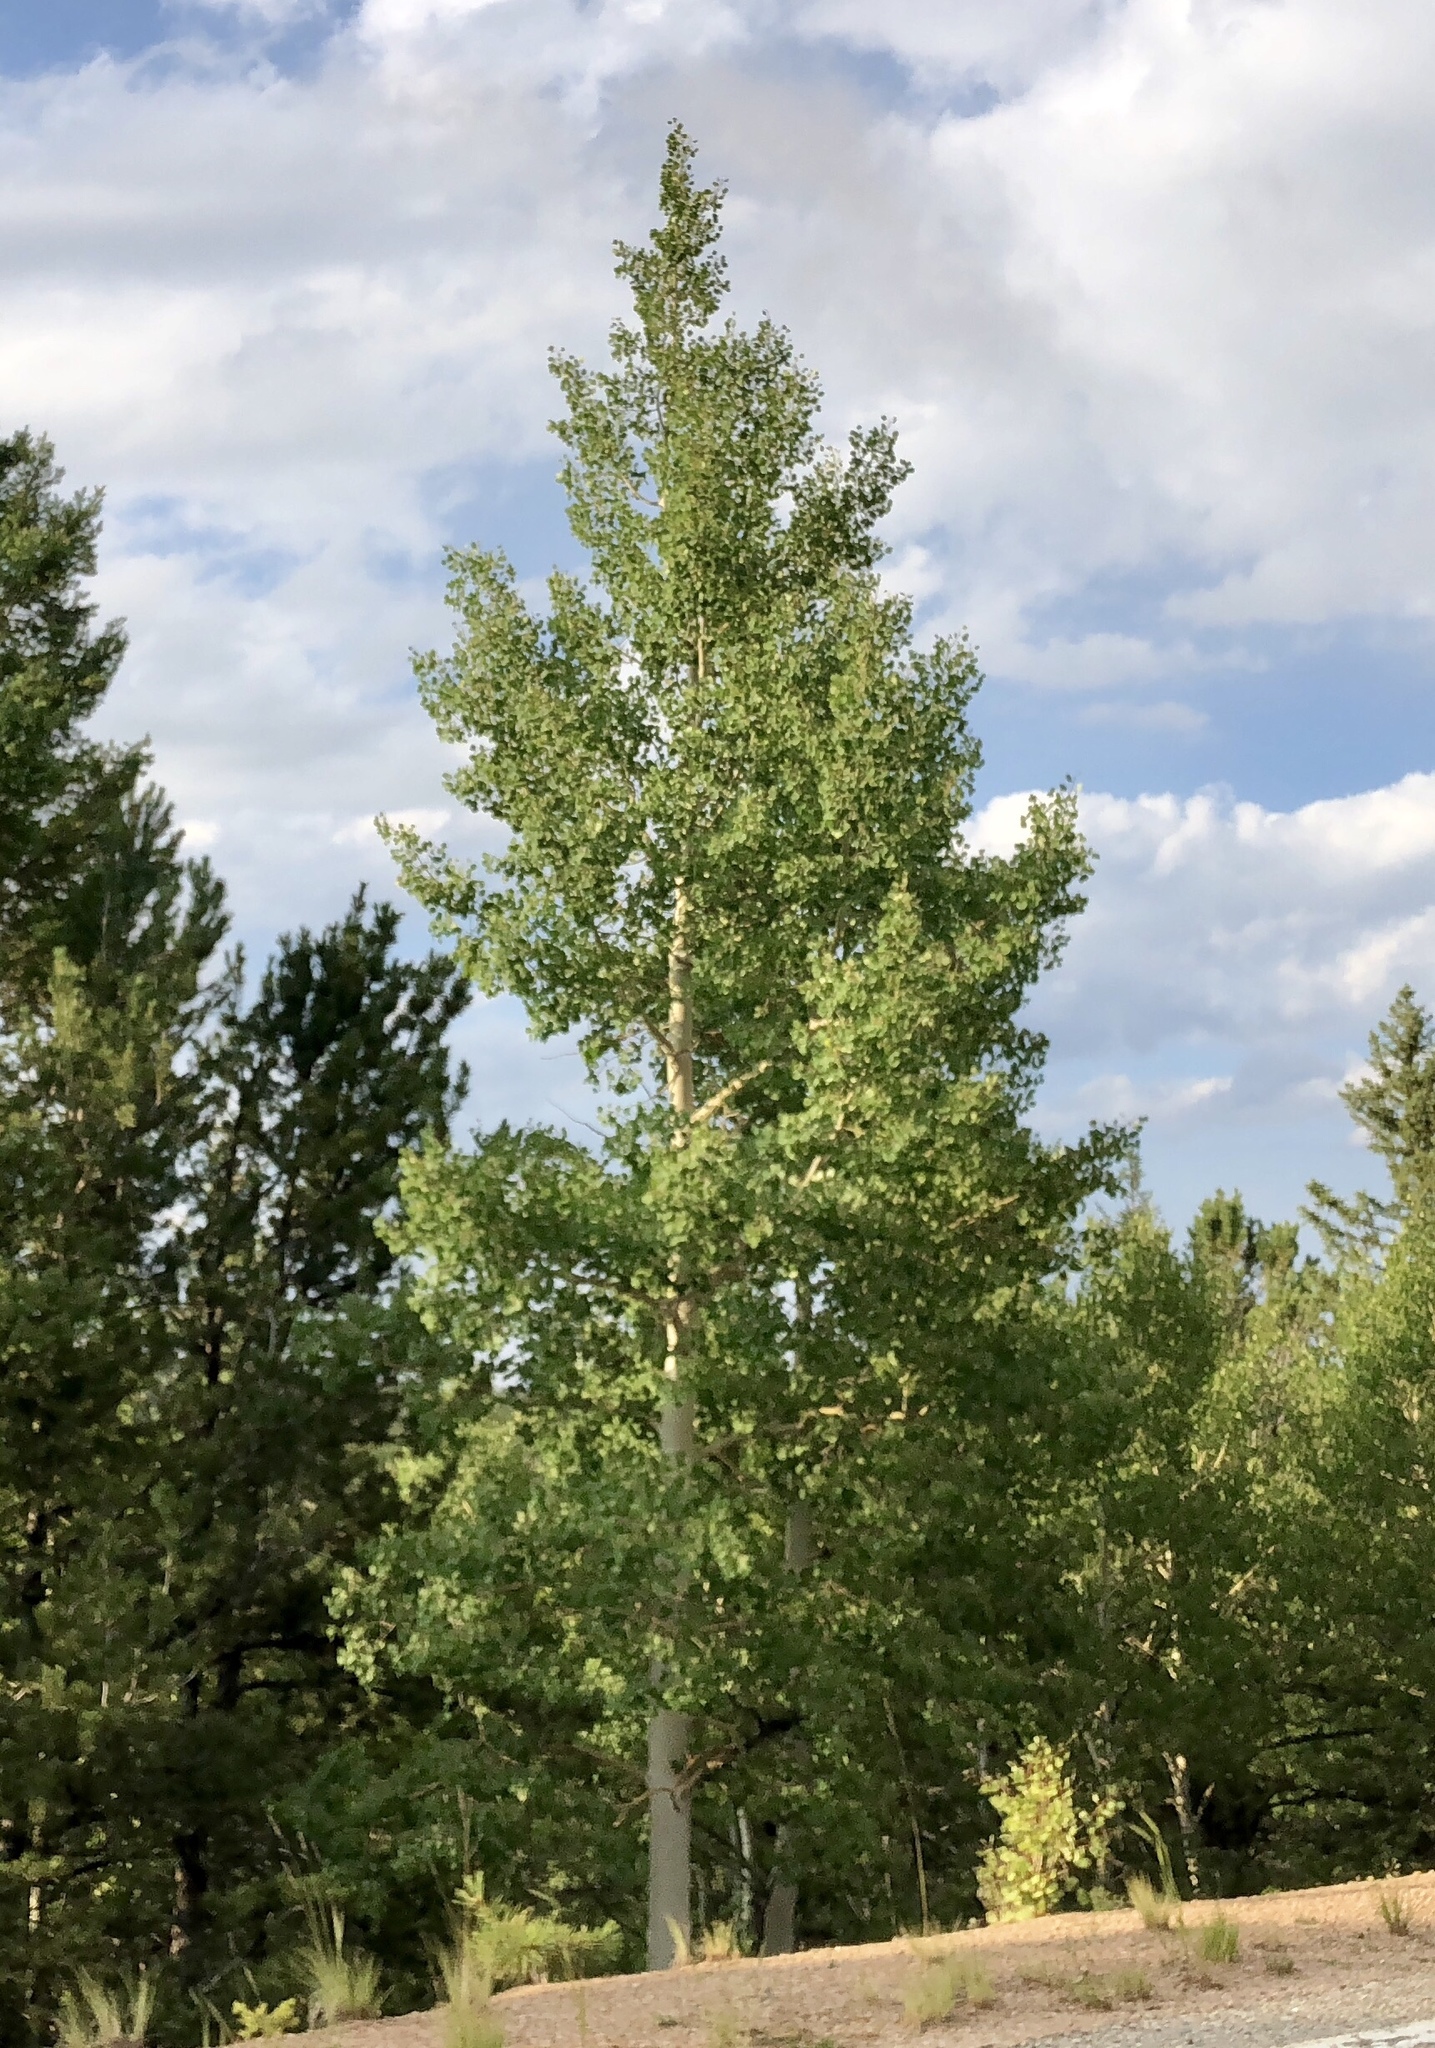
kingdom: Plantae
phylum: Tracheophyta
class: Magnoliopsida
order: Malpighiales
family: Salicaceae
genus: Populus
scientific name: Populus tremuloides
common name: Quaking aspen
